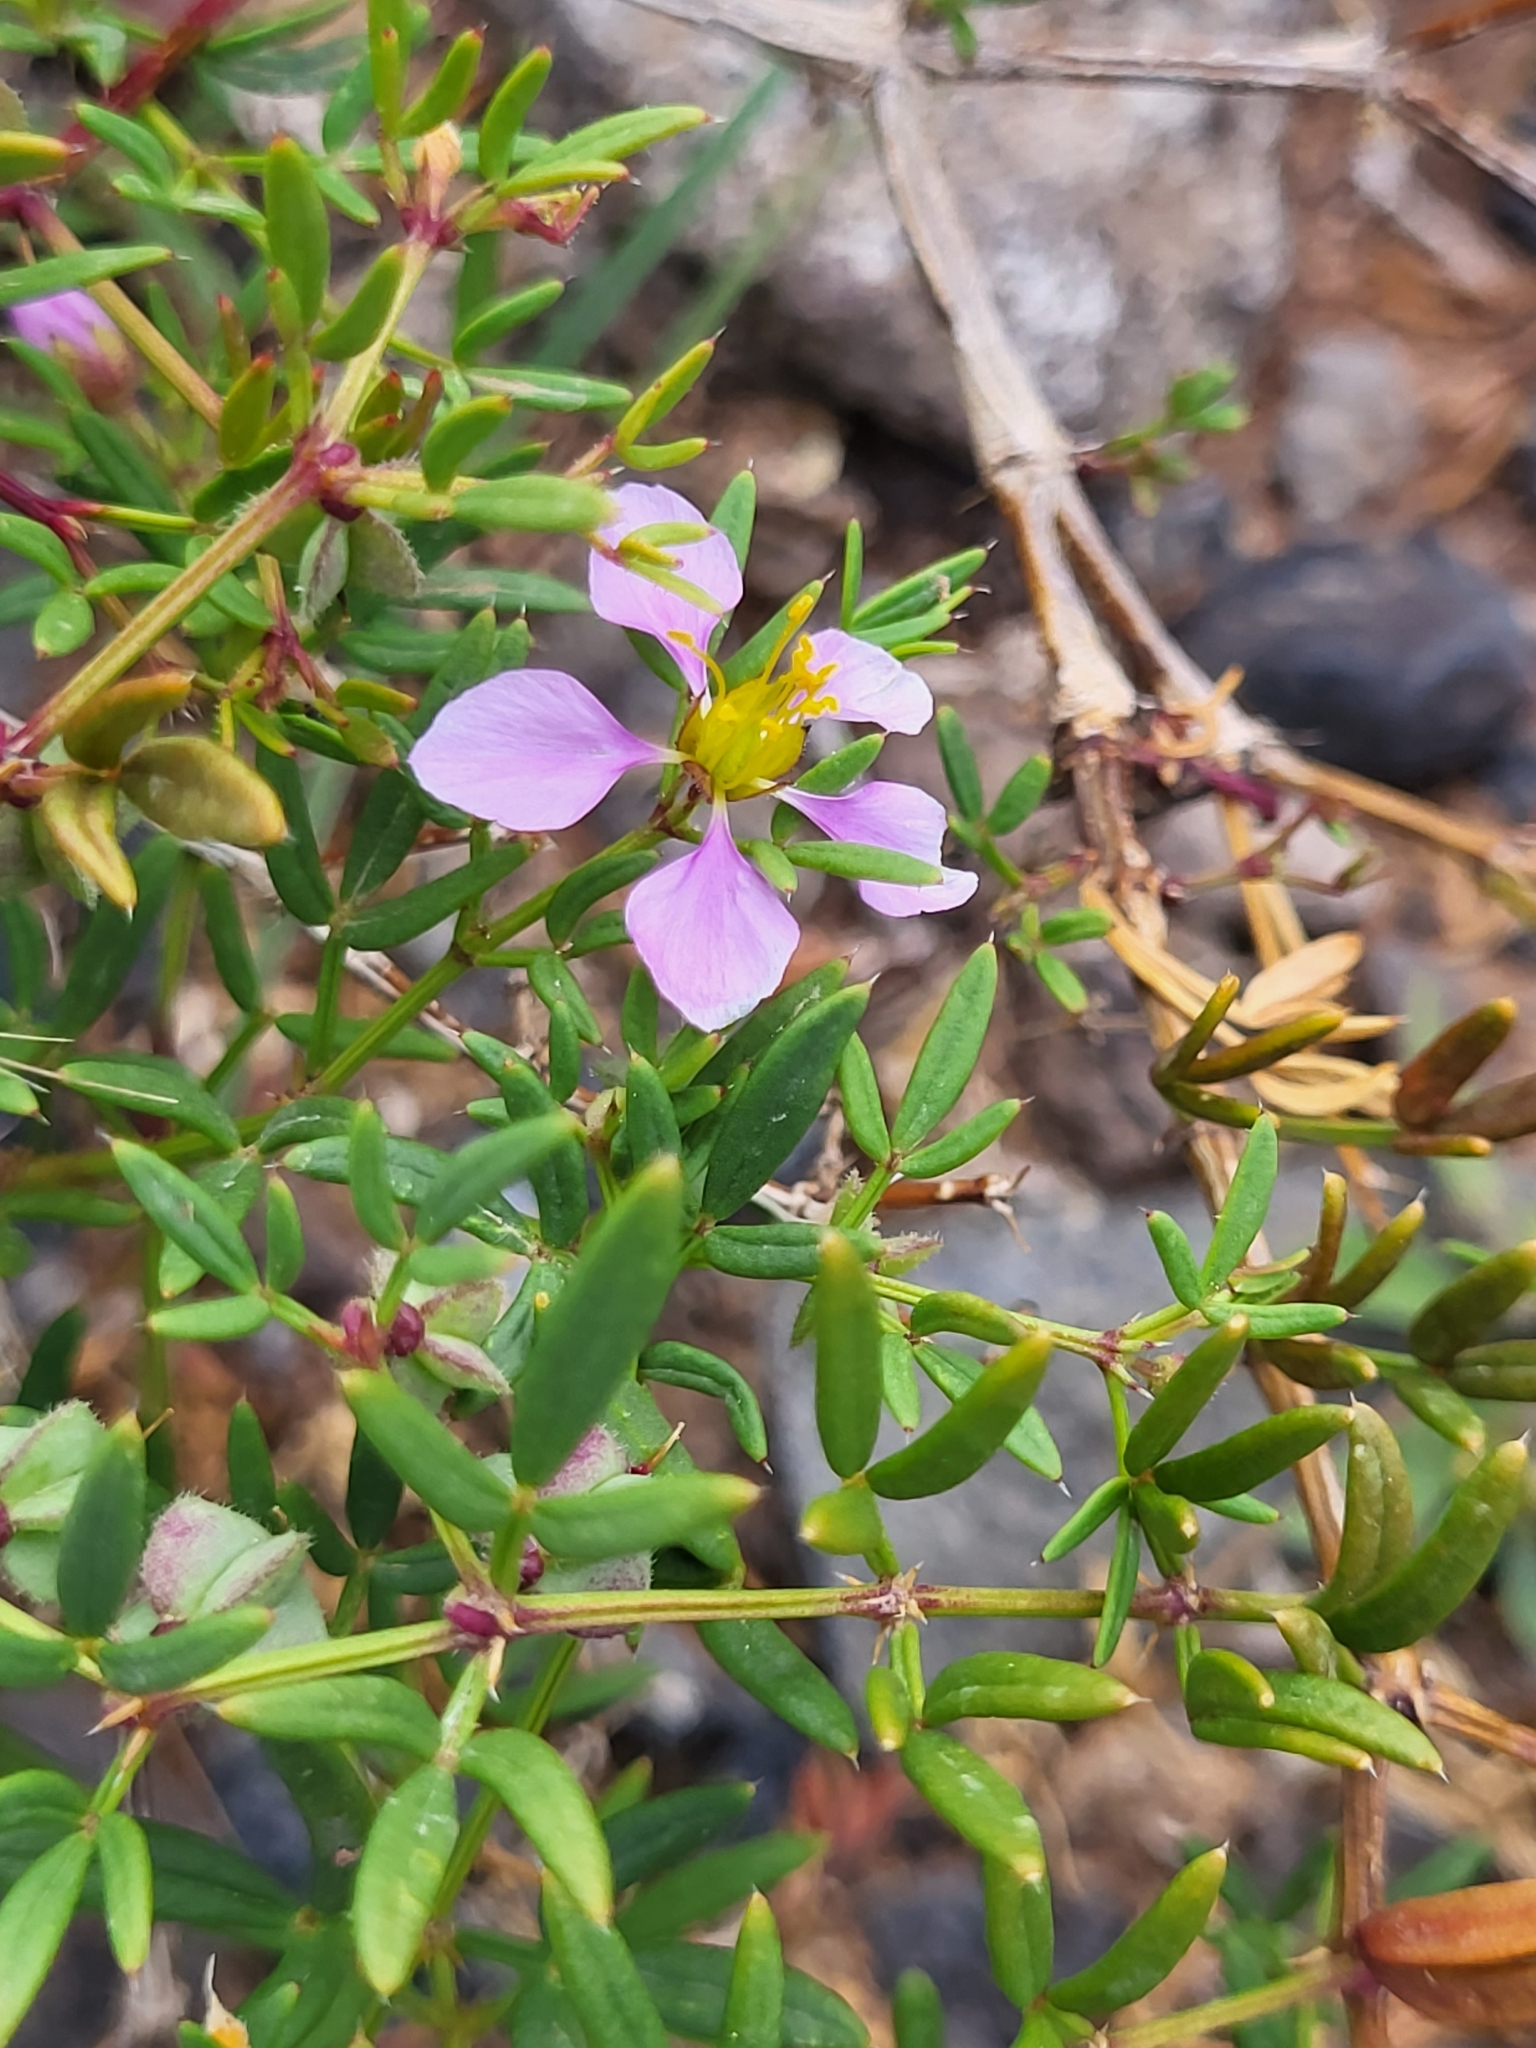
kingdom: Plantae
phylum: Tracheophyta
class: Magnoliopsida
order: Zygophyllales
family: Zygophyllaceae
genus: Fagonia
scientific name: Fagonia cretica
